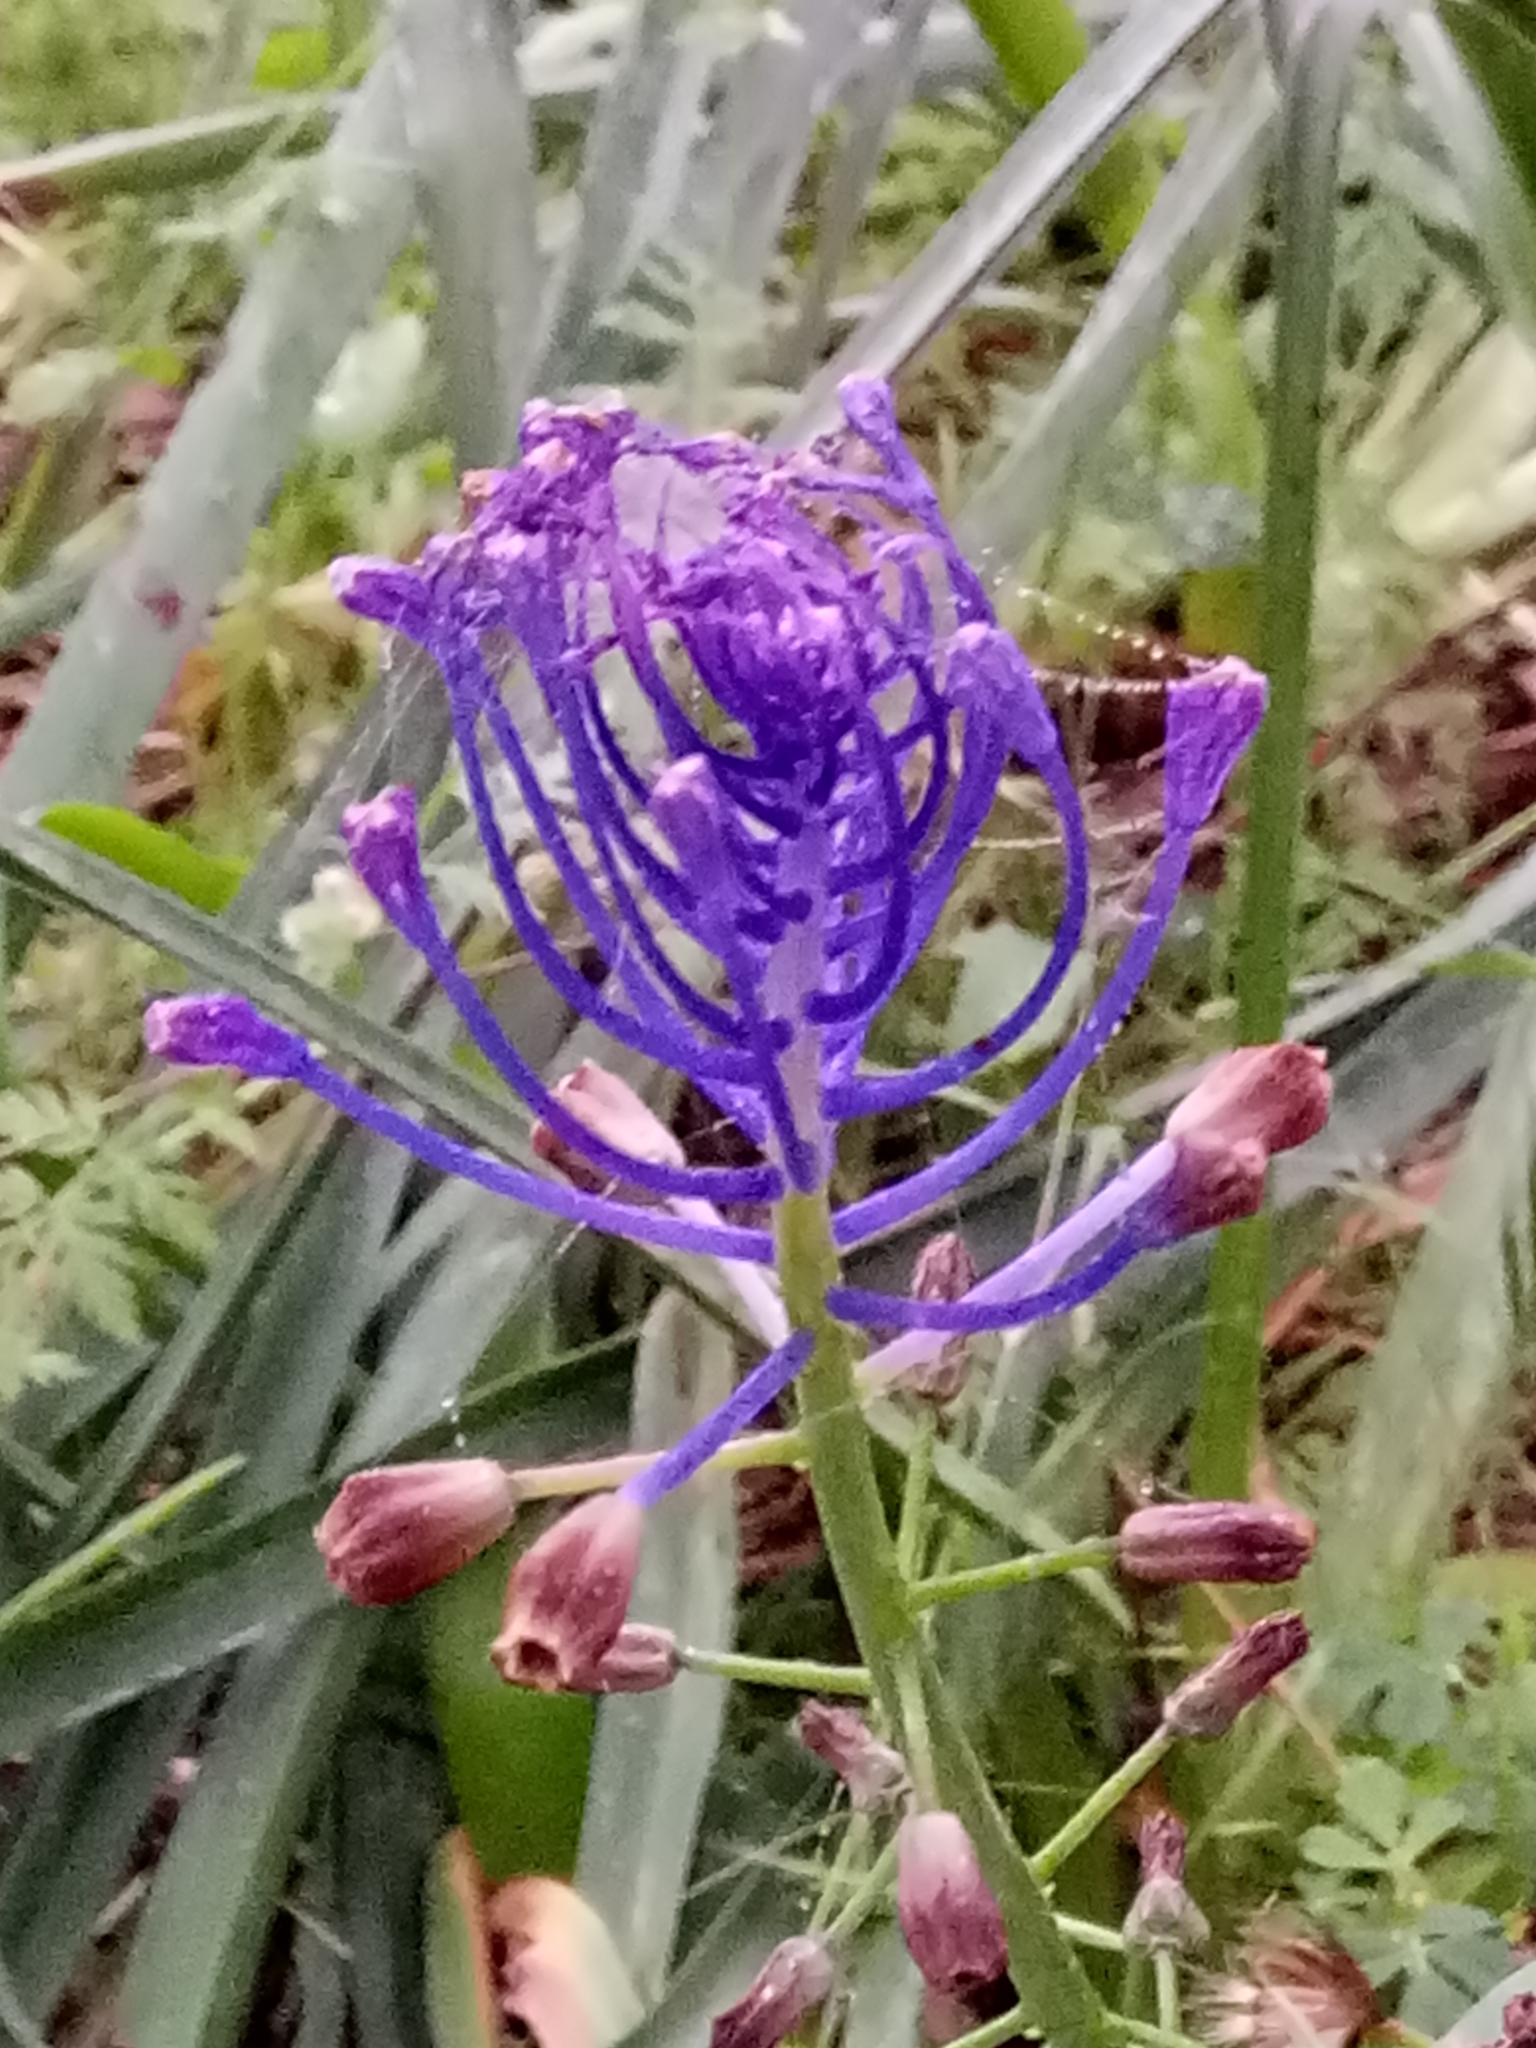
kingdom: Plantae
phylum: Tracheophyta
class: Liliopsida
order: Asparagales
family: Asparagaceae
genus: Muscari
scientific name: Muscari comosum
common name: Tassel hyacinth
